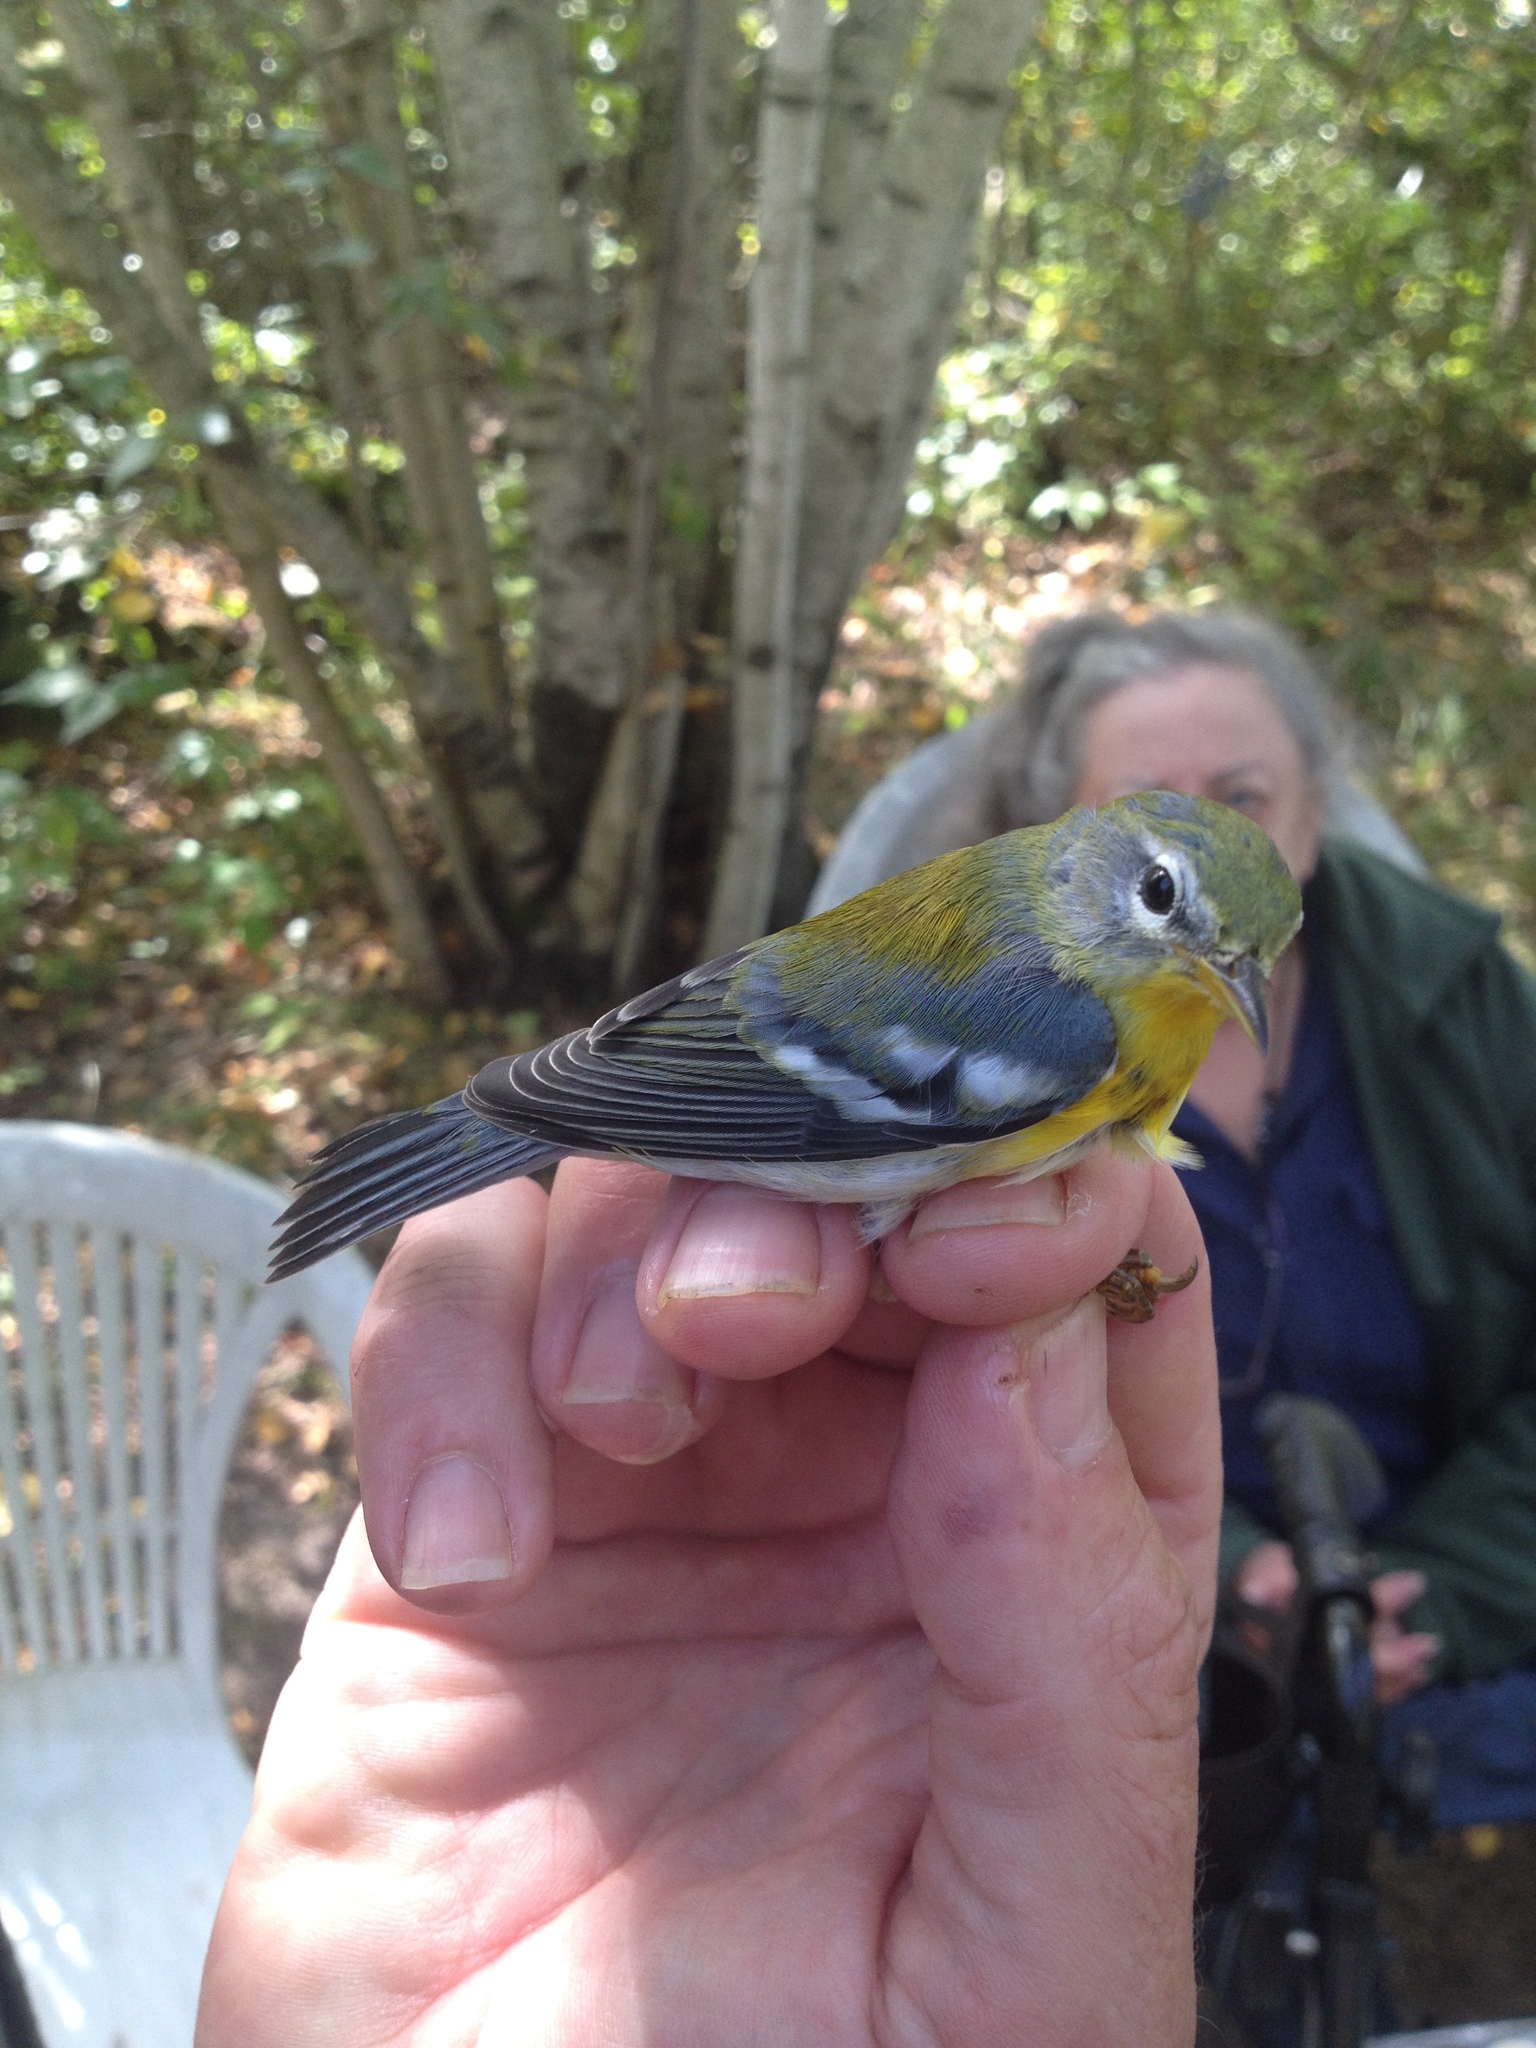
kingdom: Animalia
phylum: Chordata
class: Aves
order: Passeriformes
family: Parulidae
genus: Setophaga
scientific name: Setophaga americana
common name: Northern parula
